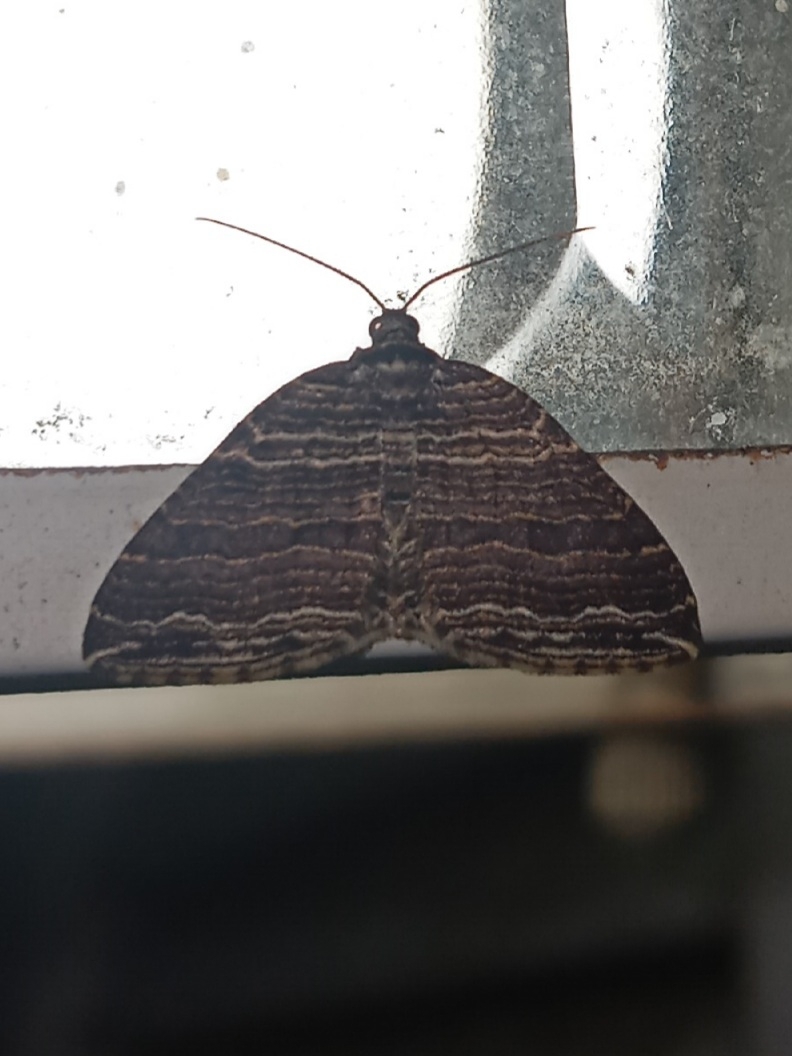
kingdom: Animalia
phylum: Arthropoda
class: Insecta
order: Lepidoptera
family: Geometridae
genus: Anticlea
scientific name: Anticlea multiferata
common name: Many-lined carpet
